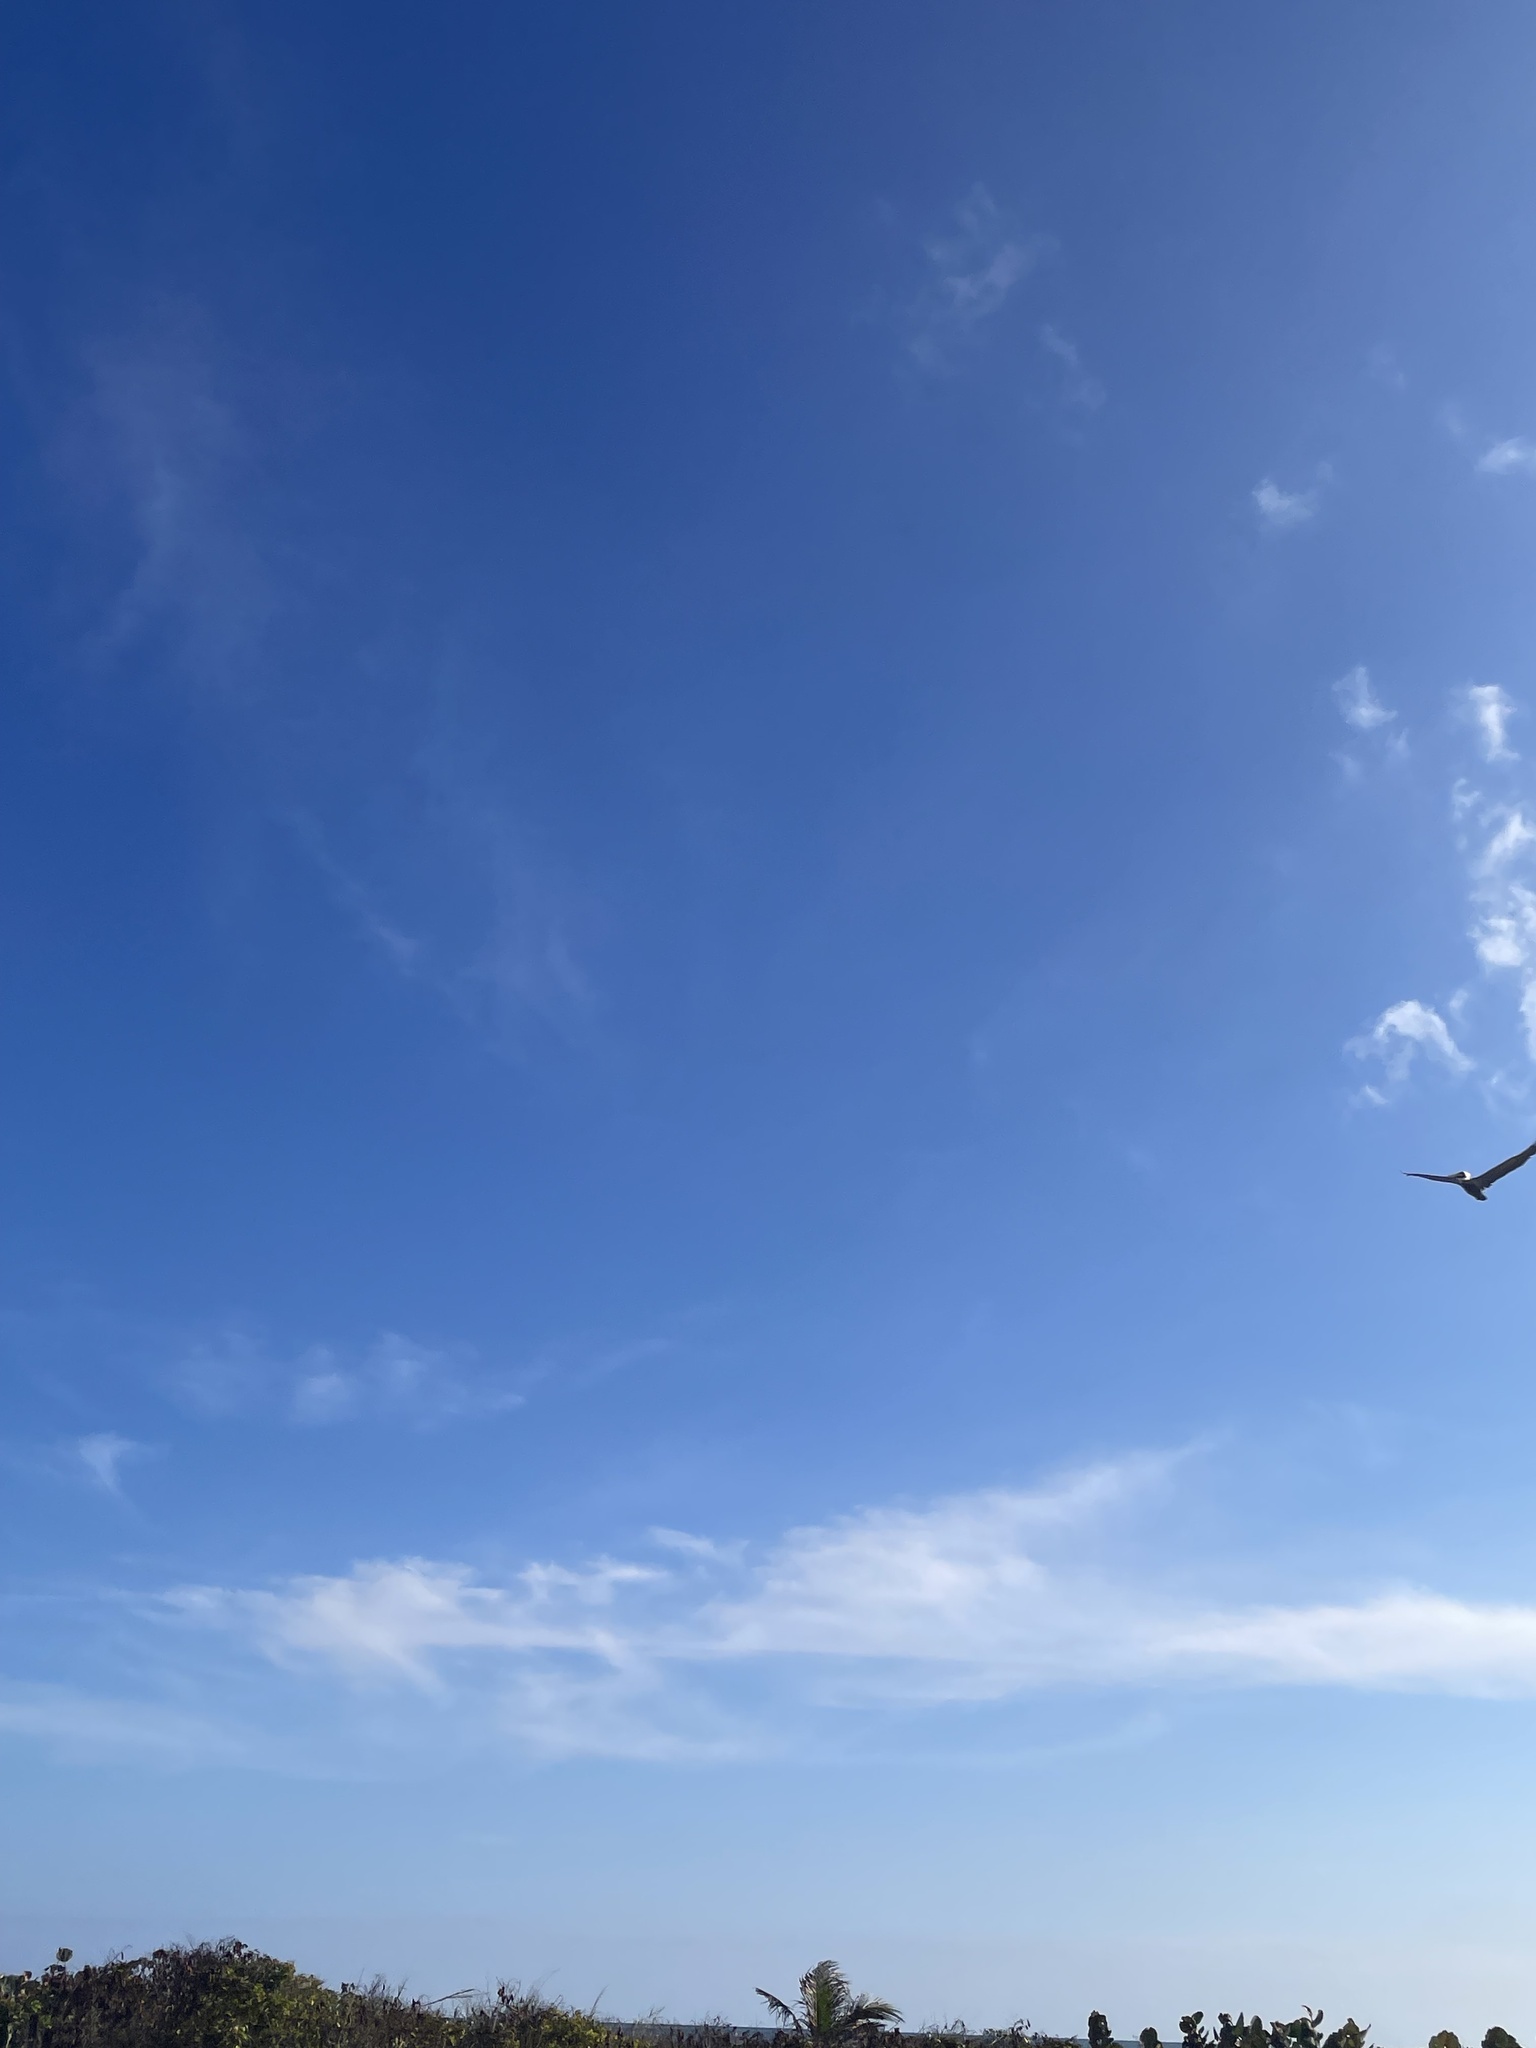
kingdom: Animalia
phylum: Chordata
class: Aves
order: Pelecaniformes
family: Pelecanidae
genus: Pelecanus
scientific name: Pelecanus occidentalis
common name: Brown pelican
